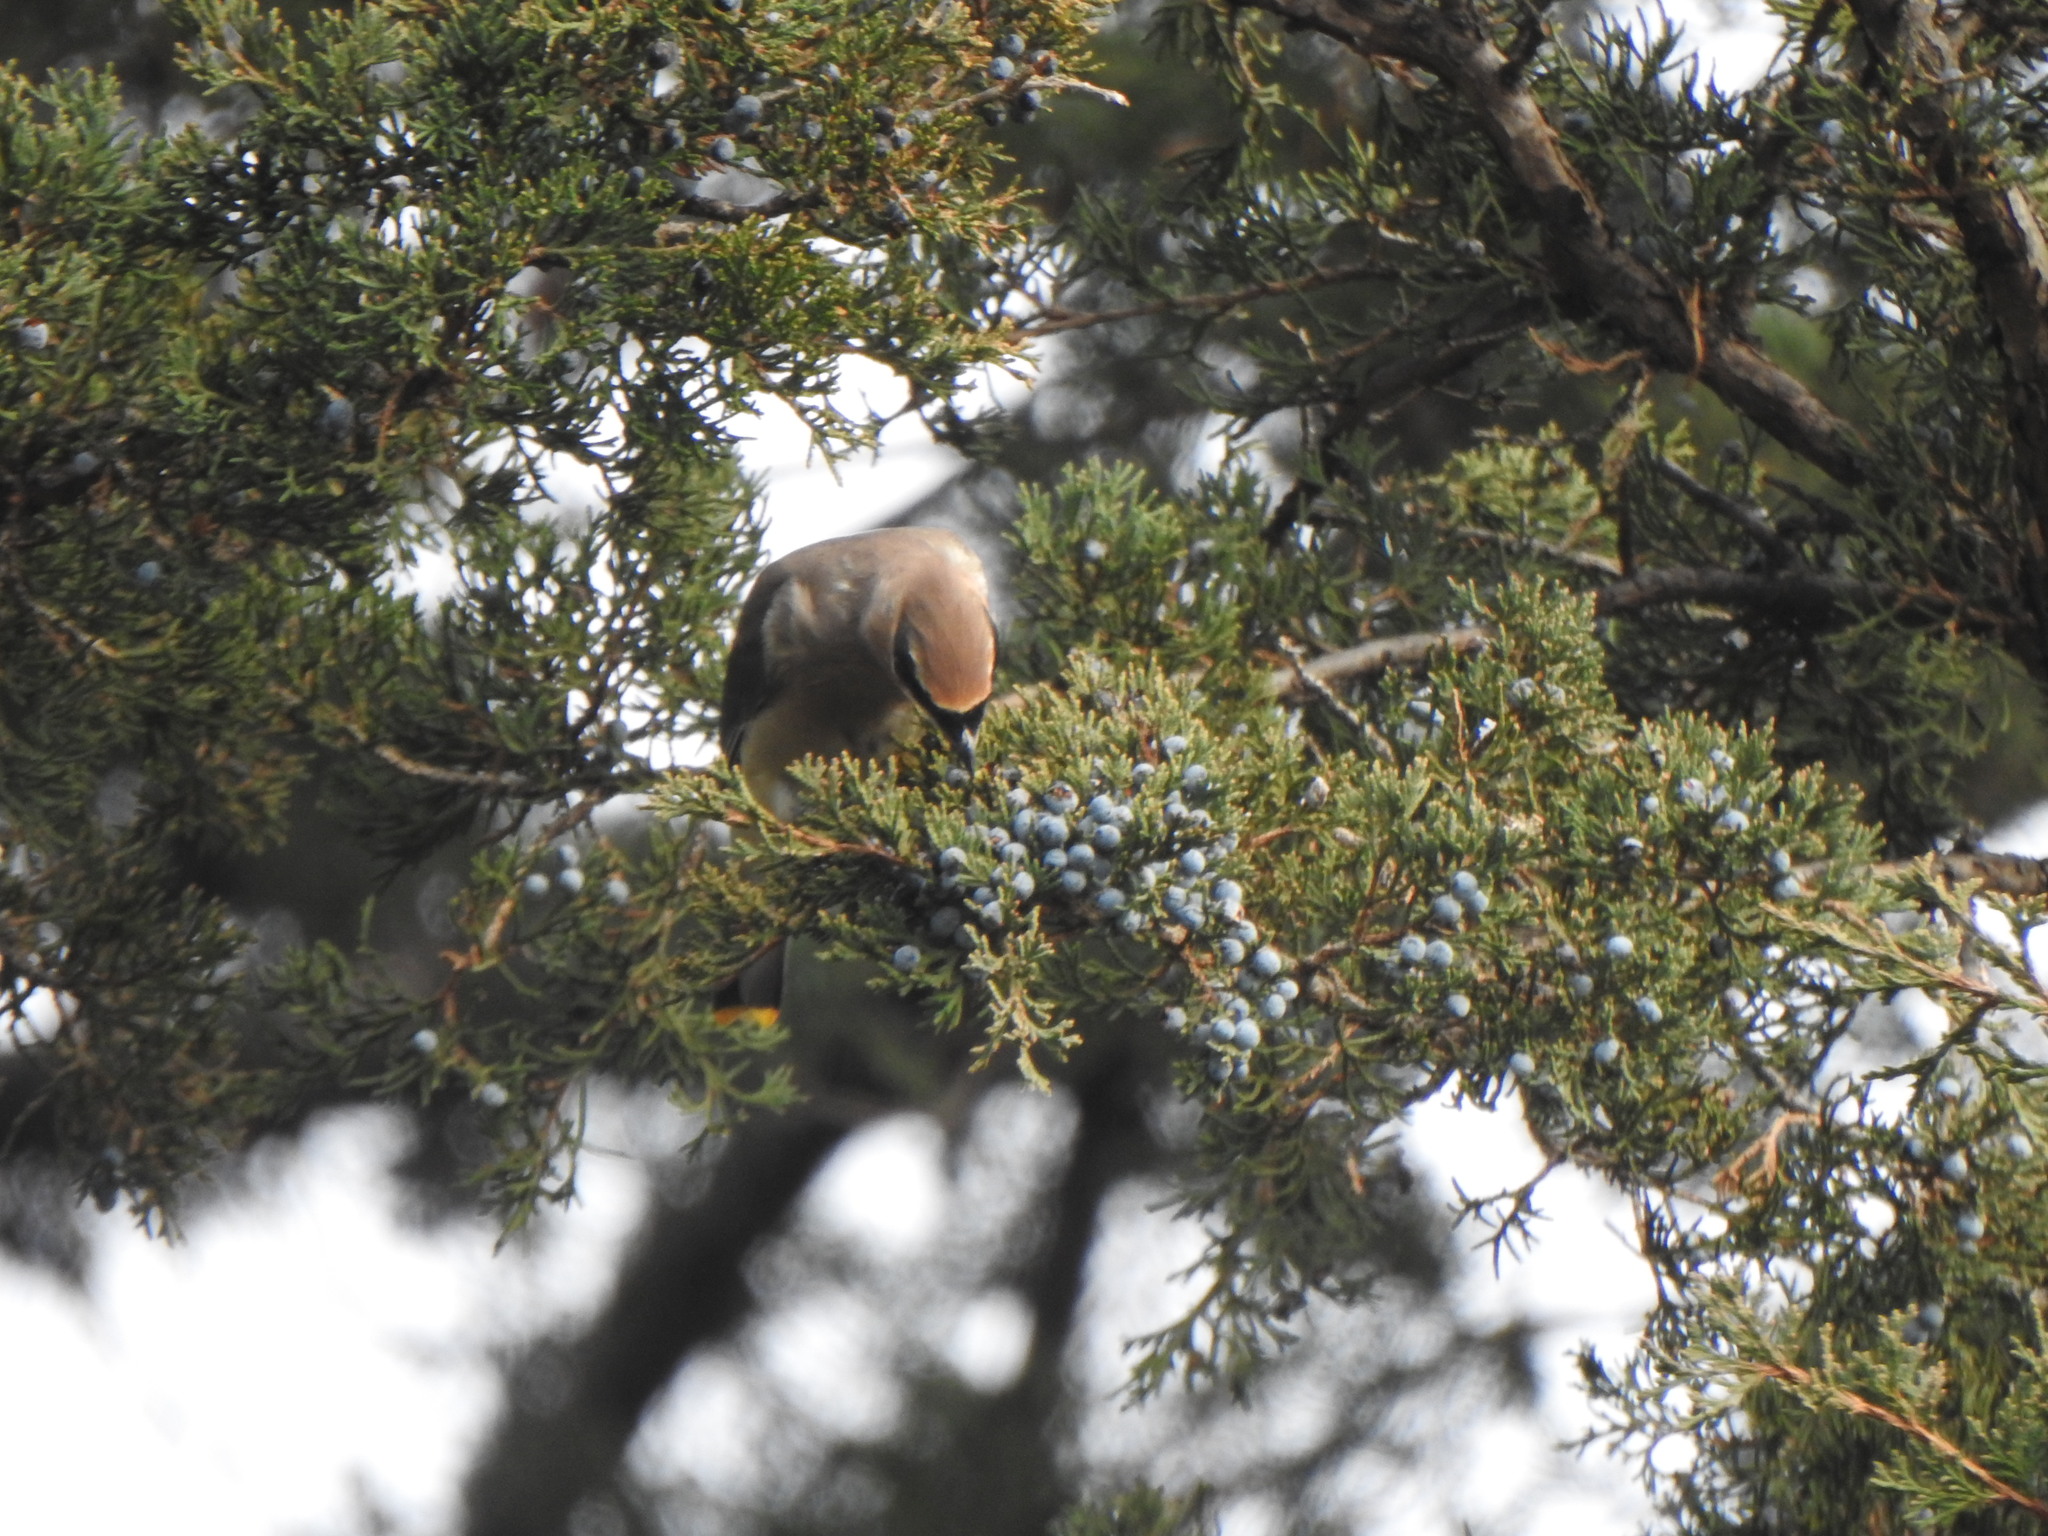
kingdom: Animalia
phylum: Chordata
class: Aves
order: Passeriformes
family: Bombycillidae
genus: Bombycilla
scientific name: Bombycilla cedrorum
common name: Cedar waxwing
